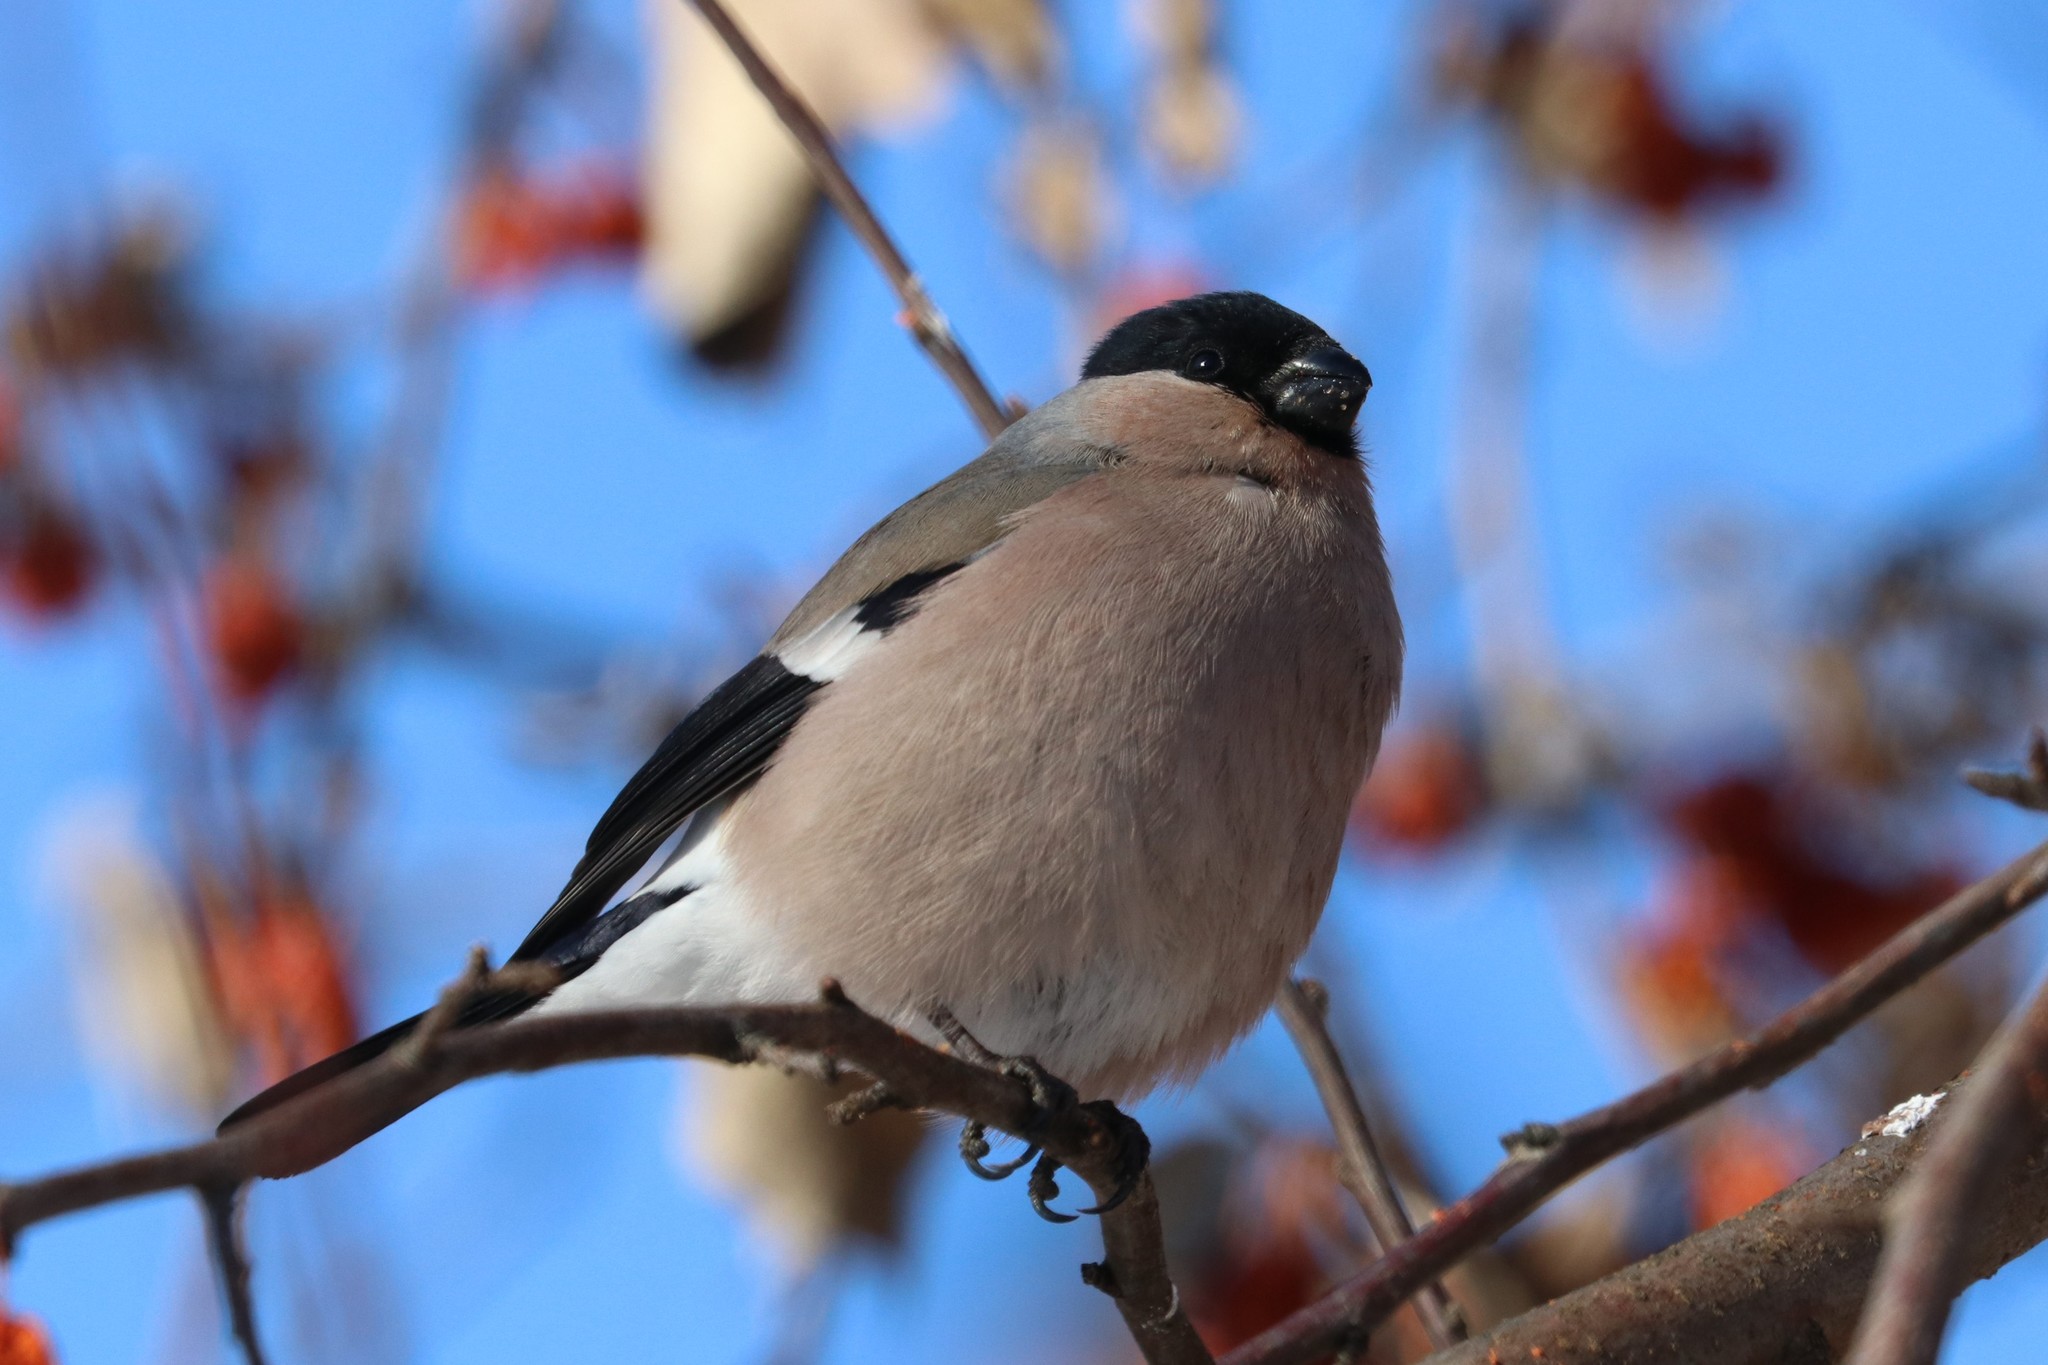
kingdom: Animalia
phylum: Chordata
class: Aves
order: Passeriformes
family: Fringillidae
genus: Pyrrhula
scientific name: Pyrrhula pyrrhula
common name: Eurasian bullfinch
